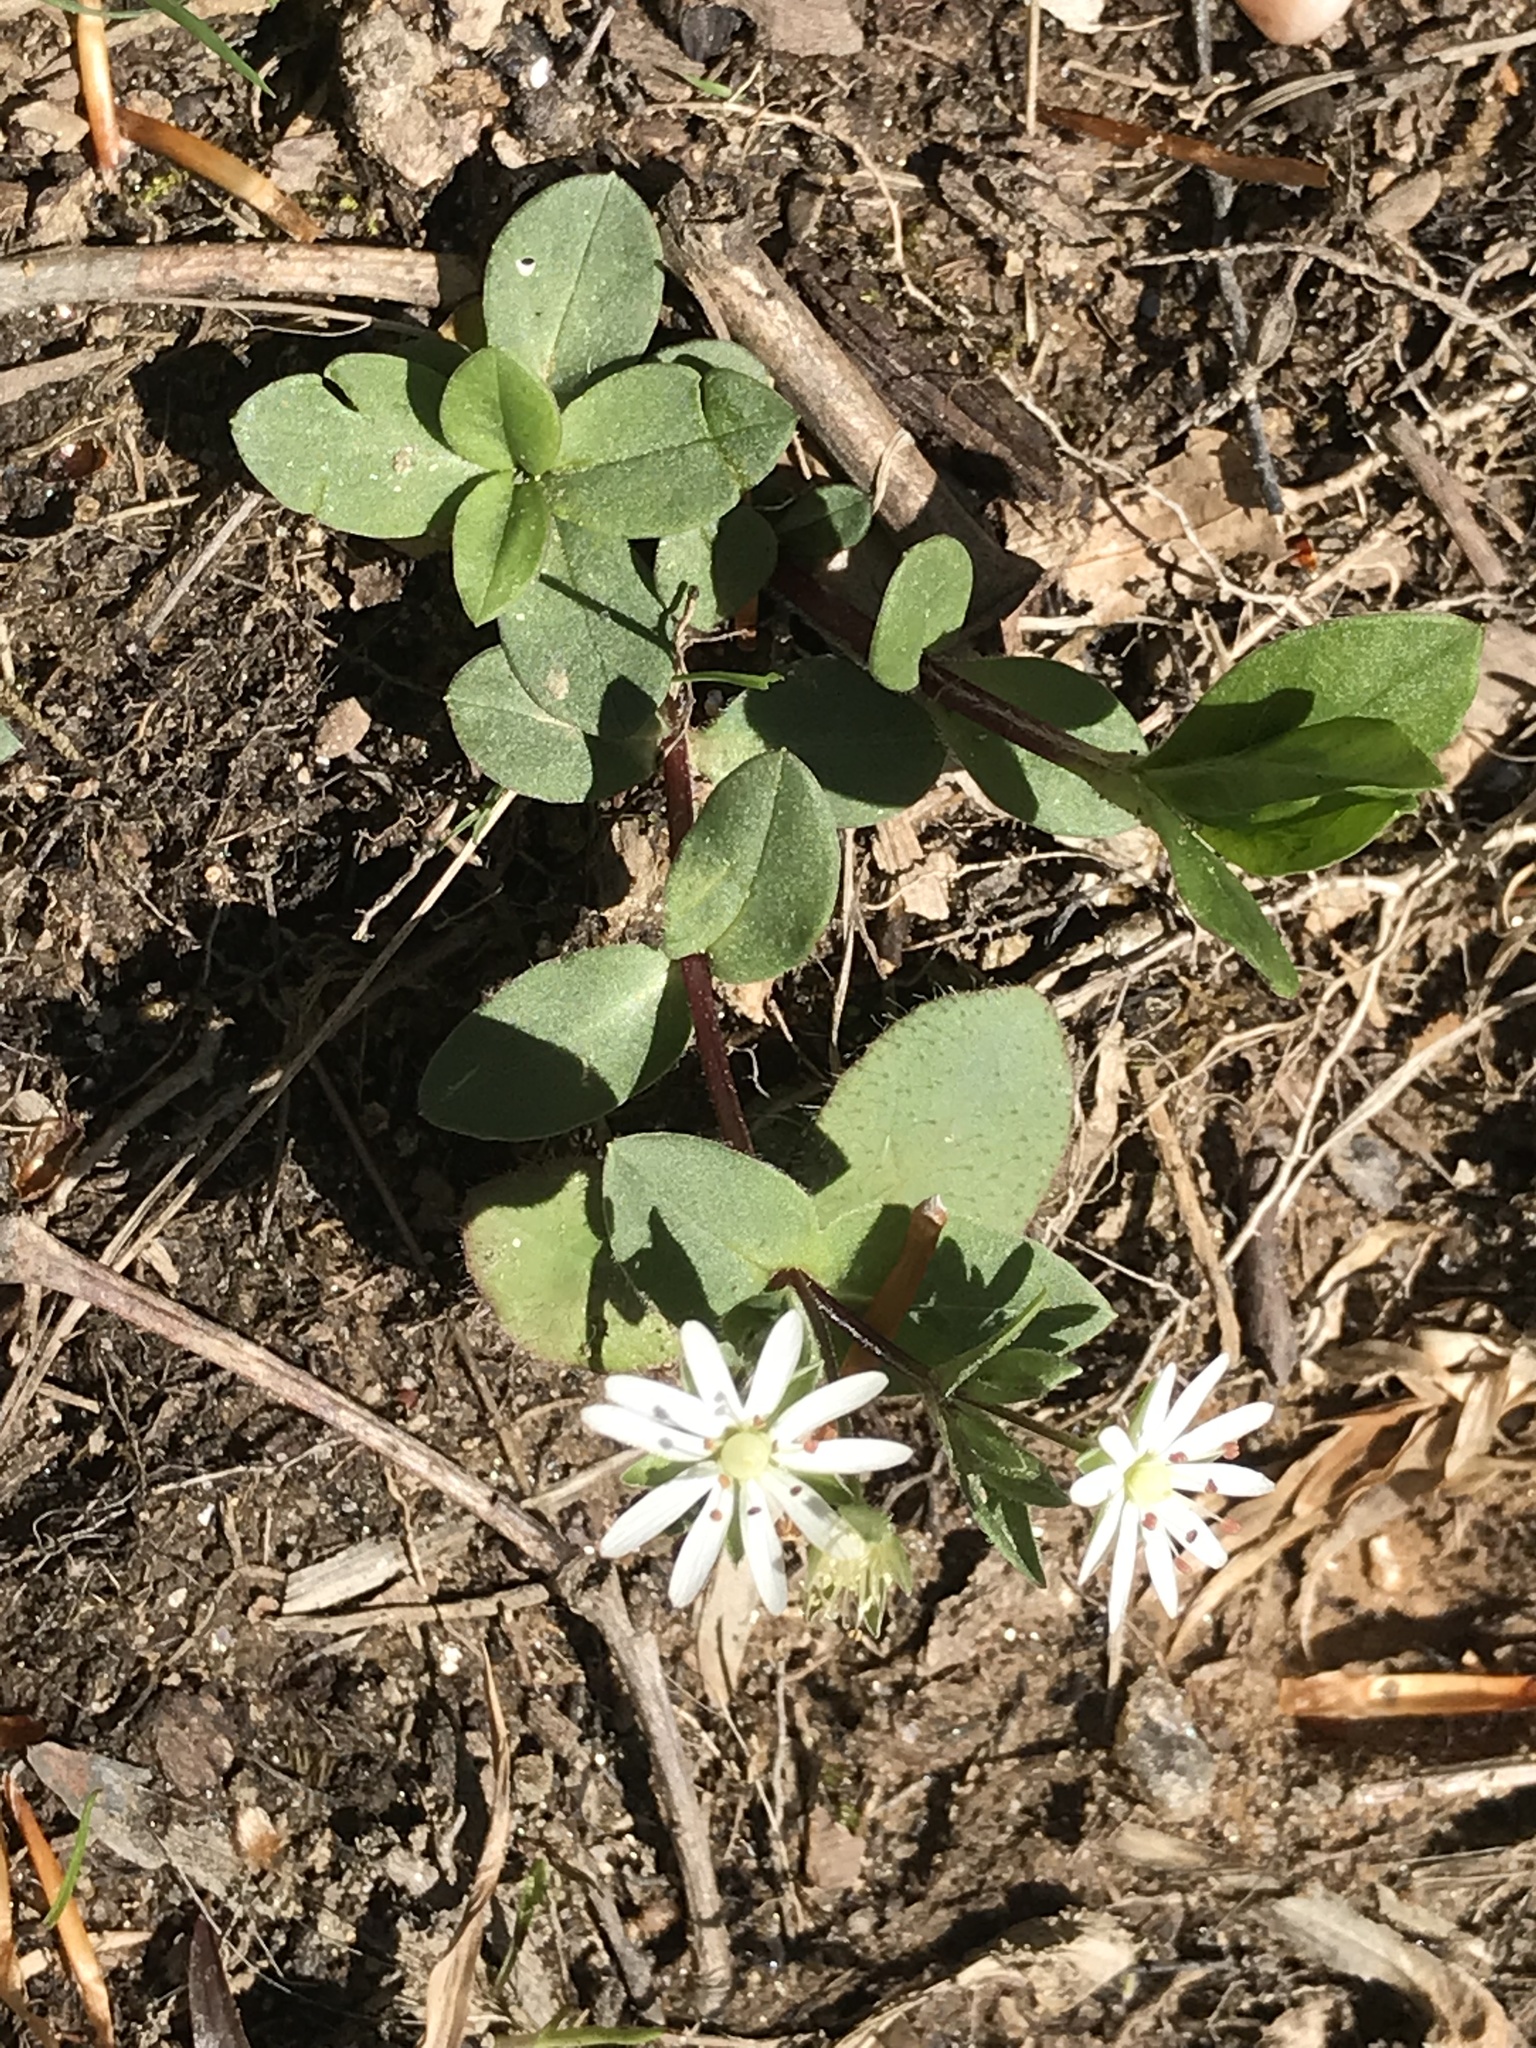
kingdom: Plantae
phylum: Tracheophyta
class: Magnoliopsida
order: Caryophyllales
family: Caryophyllaceae
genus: Stellaria
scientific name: Stellaria pubera
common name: Star chickweed
